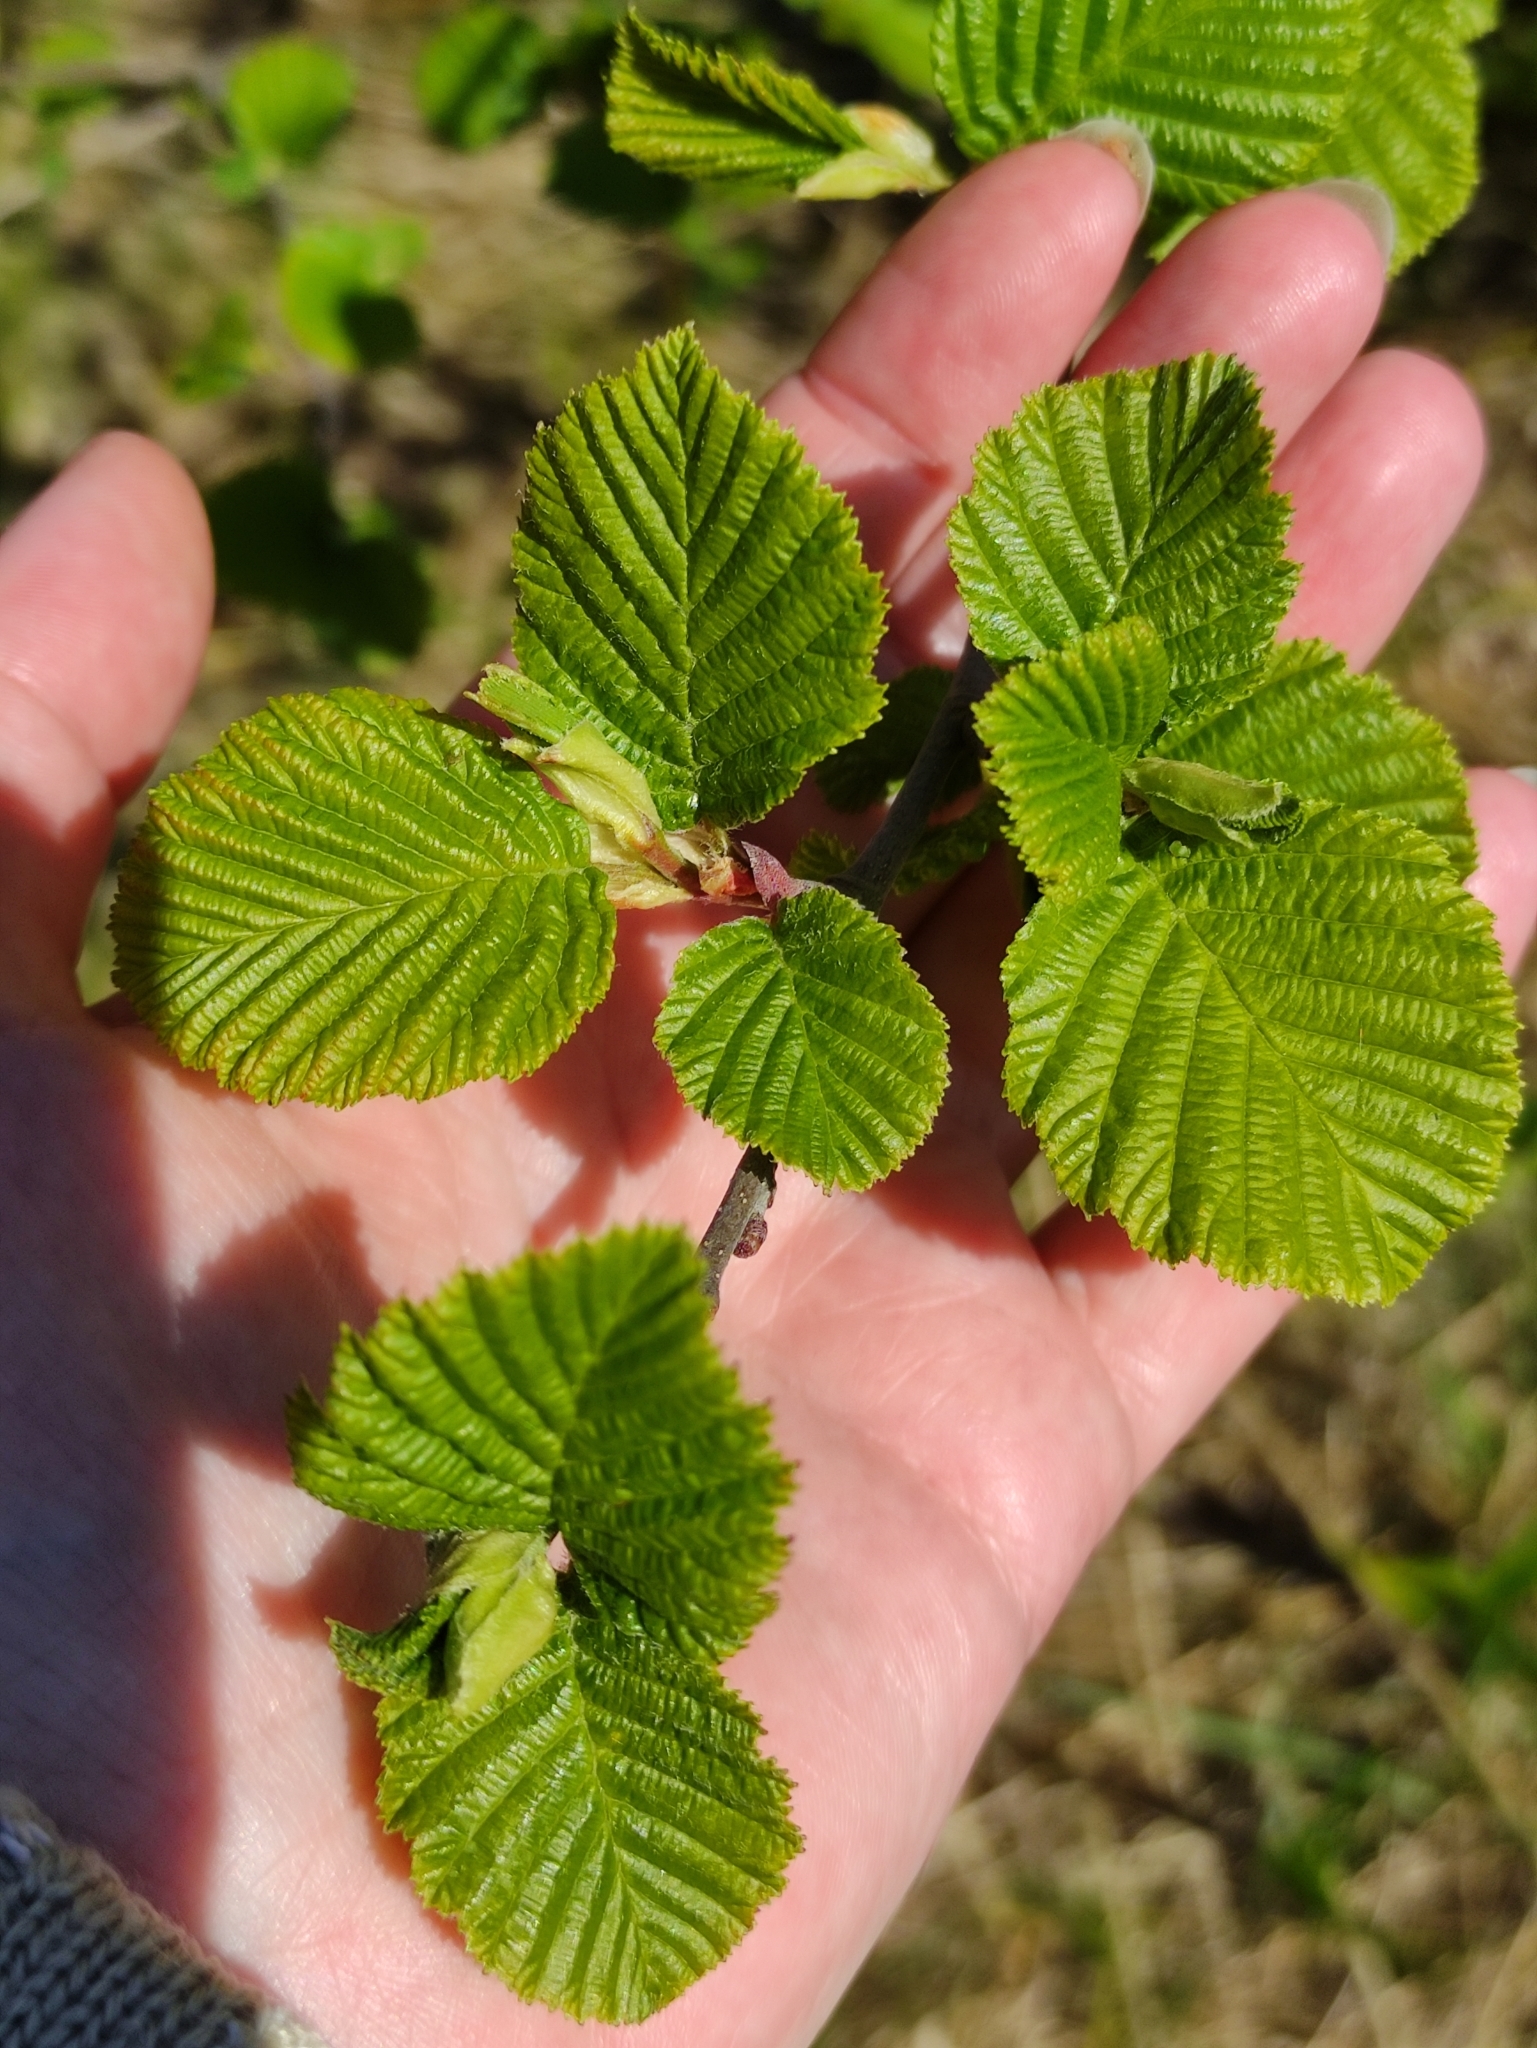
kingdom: Plantae
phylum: Tracheophyta
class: Magnoliopsida
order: Fagales
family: Betulaceae
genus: Alnus
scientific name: Alnus incana
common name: Grey alder
